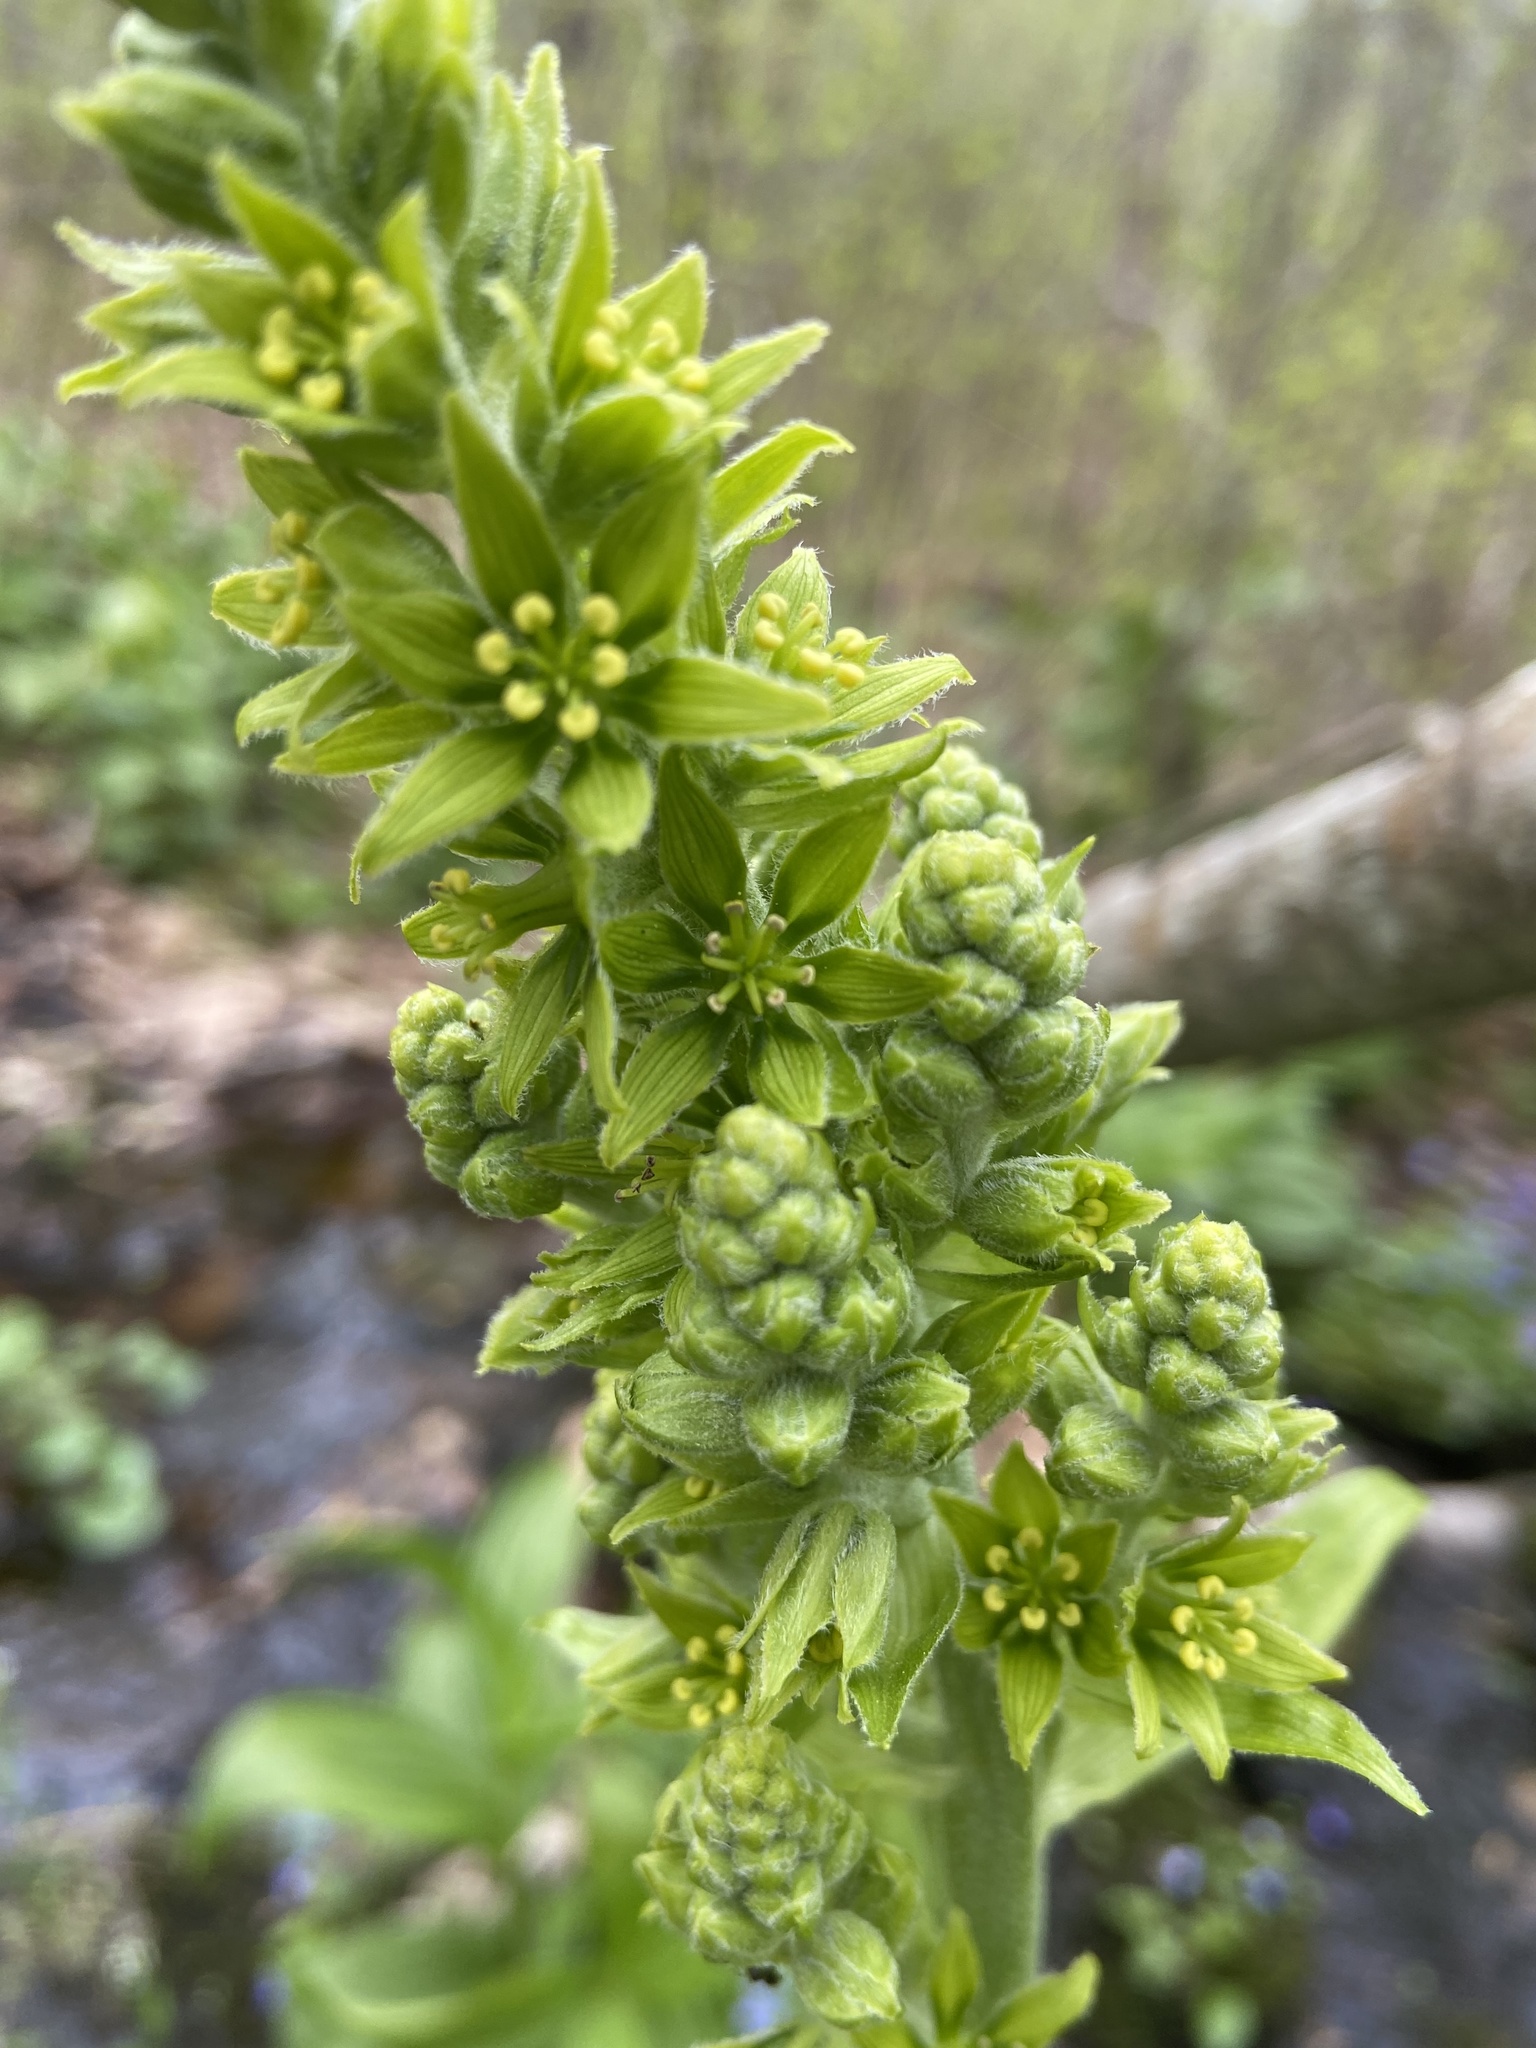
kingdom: Plantae
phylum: Tracheophyta
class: Liliopsida
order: Liliales
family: Melanthiaceae
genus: Veratrum
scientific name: Veratrum viride
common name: American false hellebore
